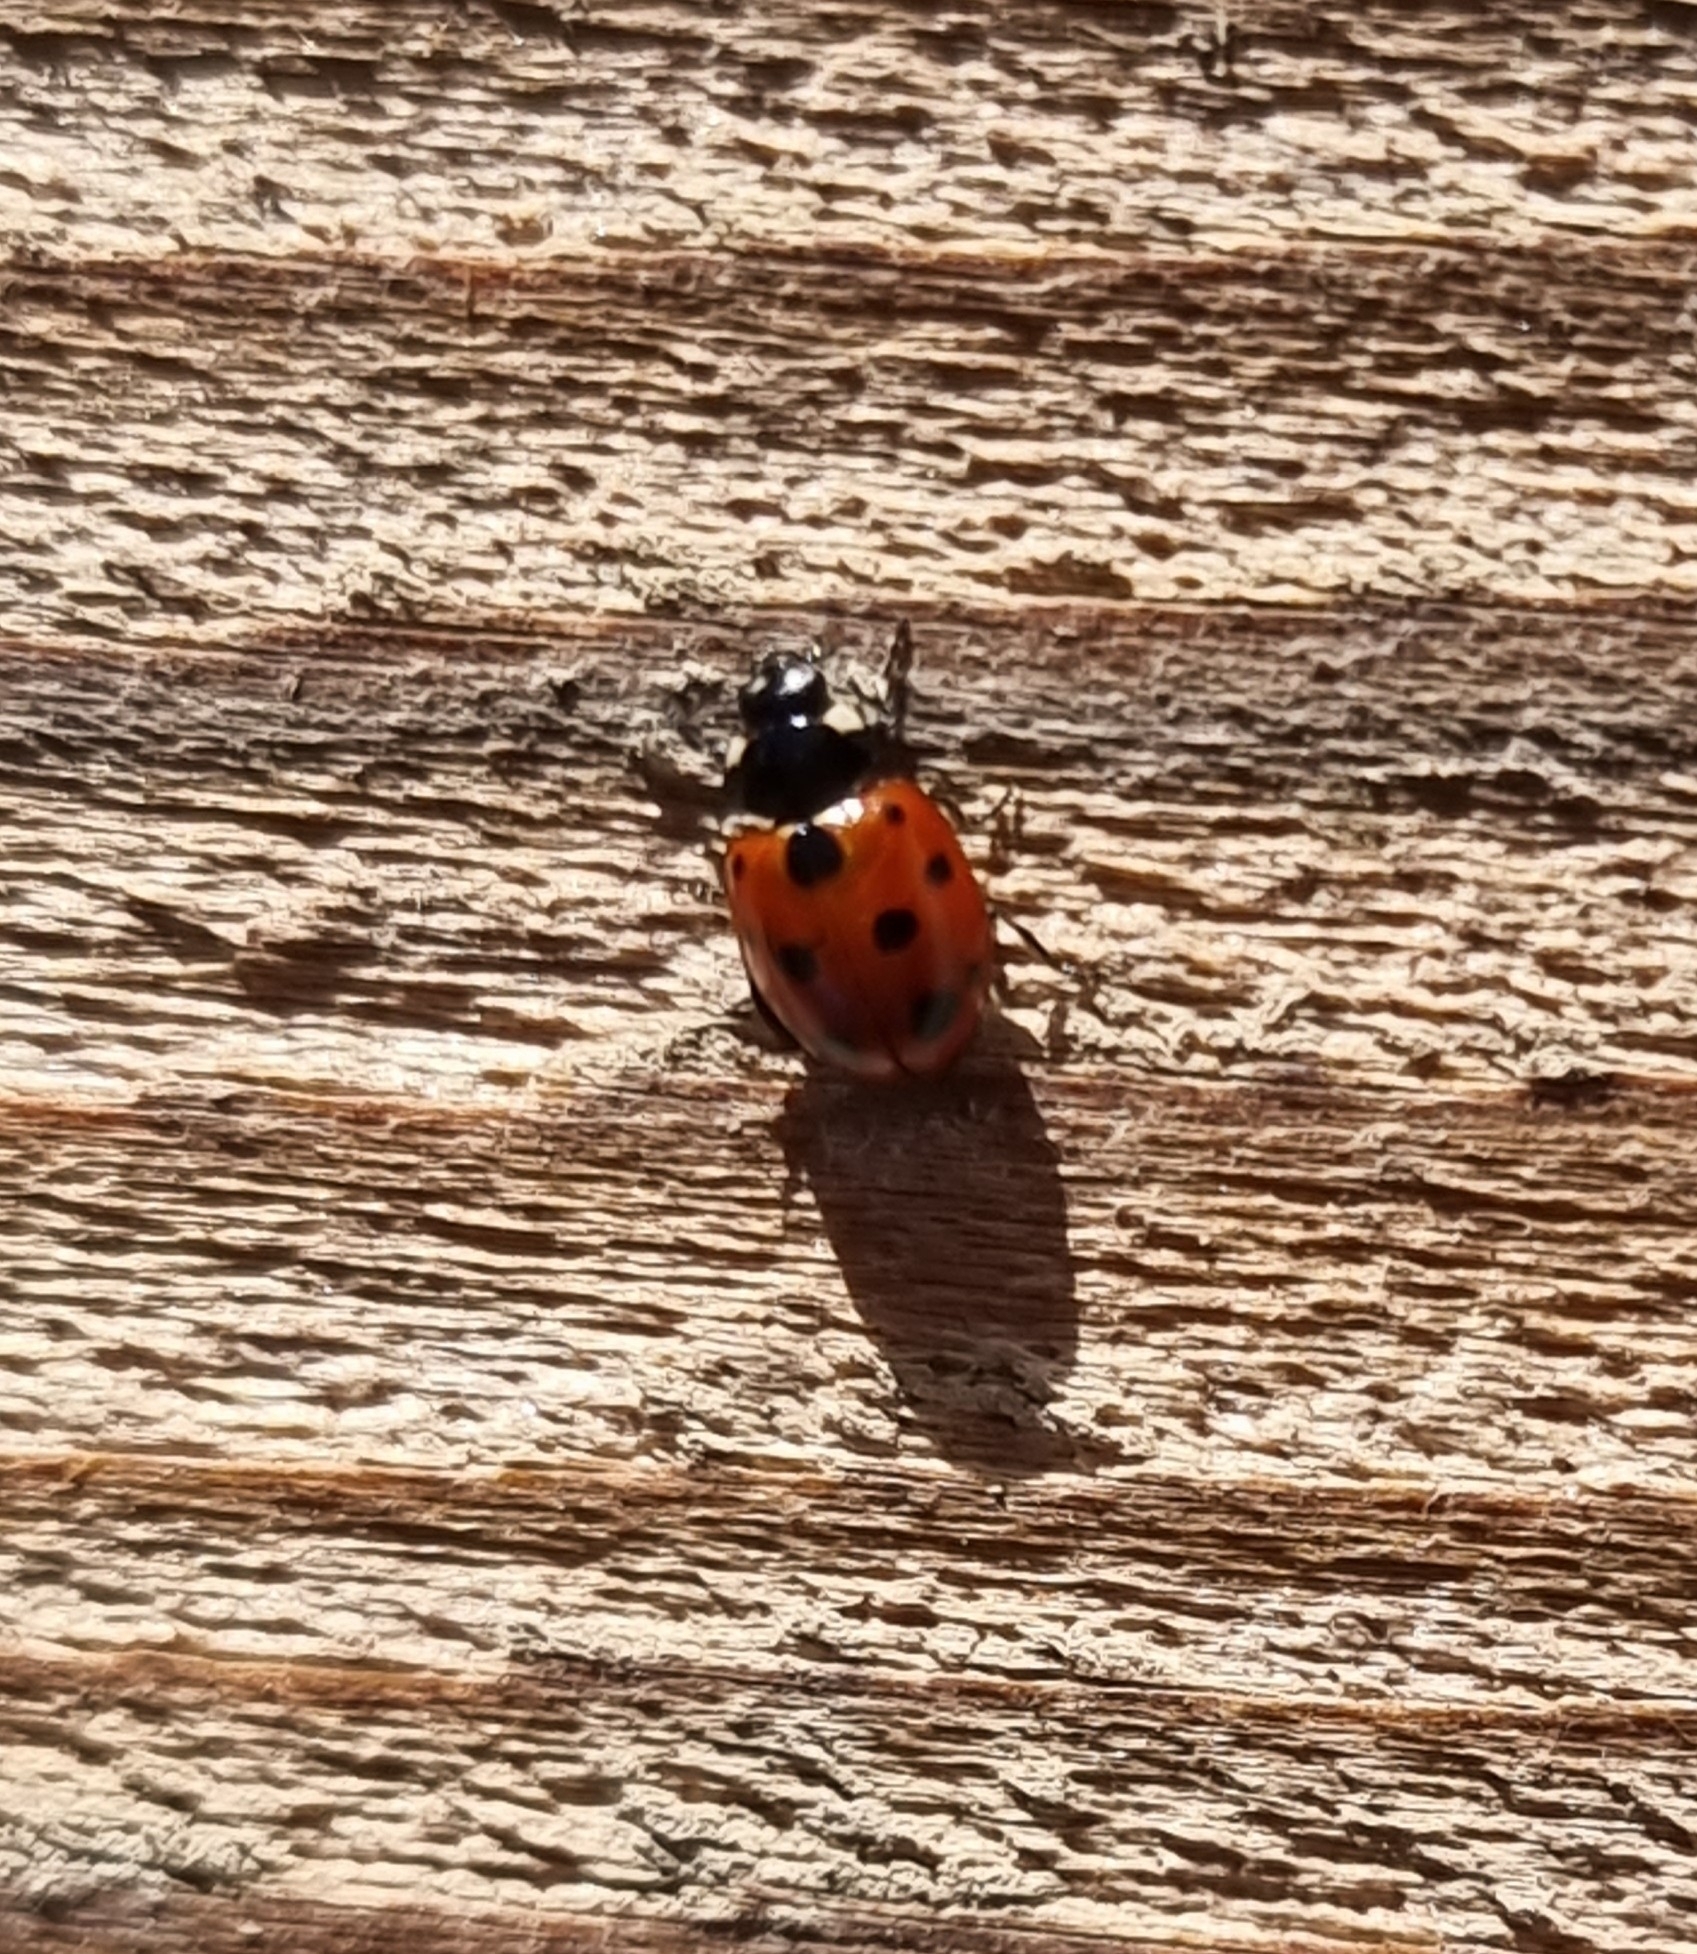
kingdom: Animalia
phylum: Arthropoda
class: Insecta
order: Coleoptera
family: Coccinellidae
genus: Coccinella
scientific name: Coccinella undecimpunctata
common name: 11-spot ladybird
